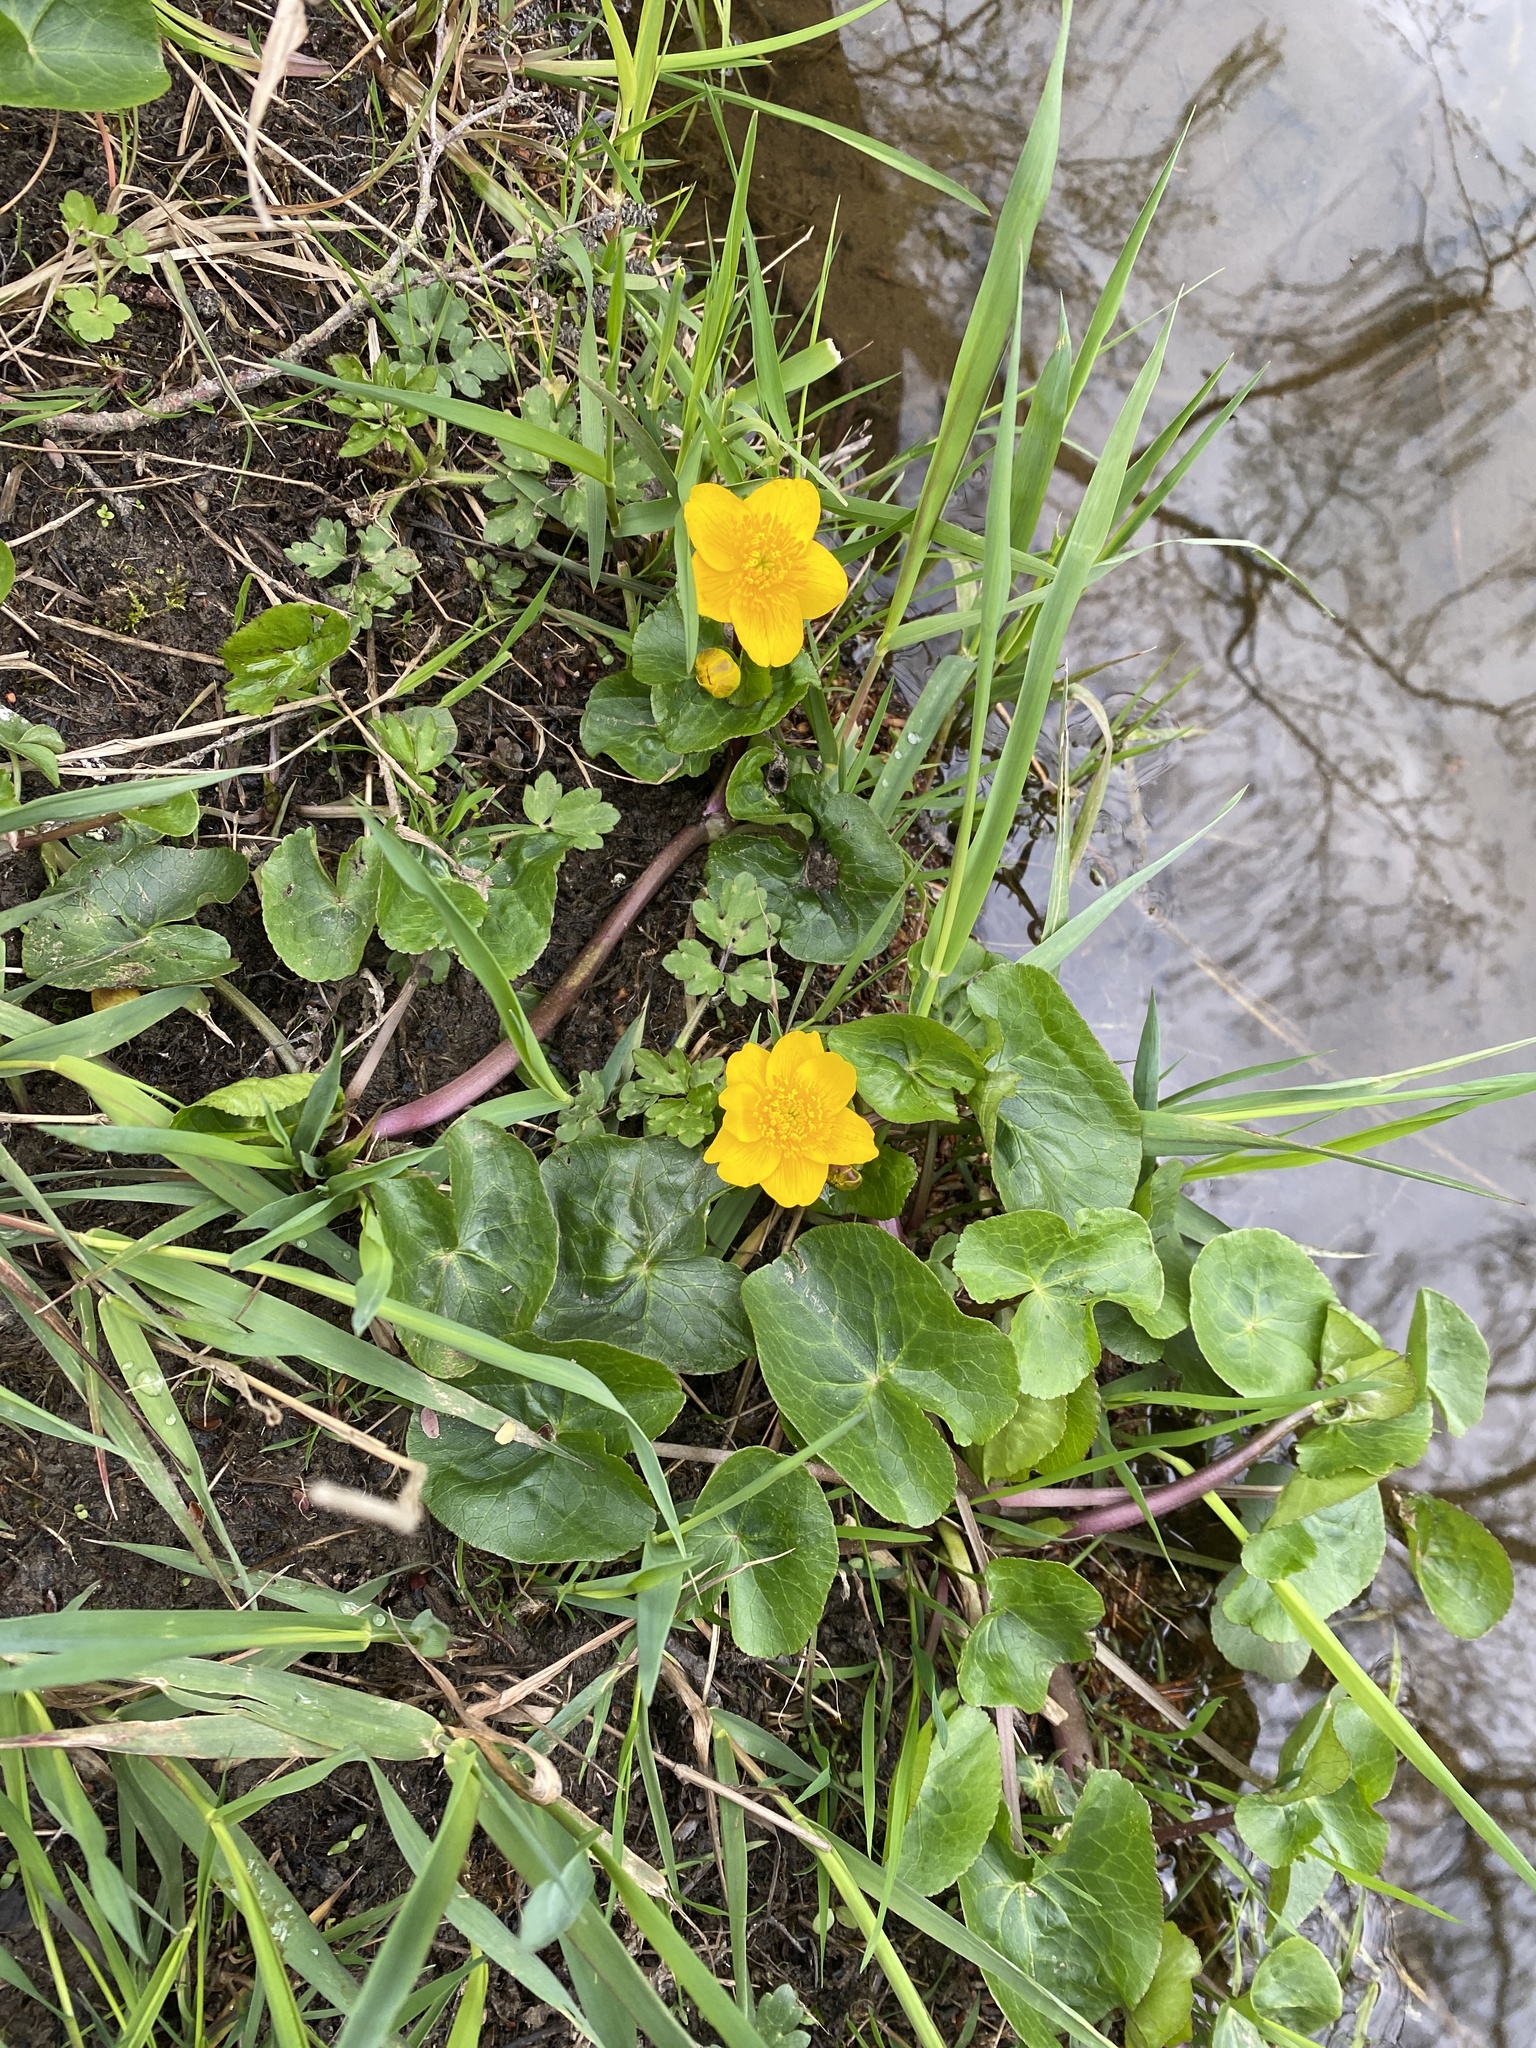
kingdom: Plantae
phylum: Tracheophyta
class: Magnoliopsida
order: Ranunculales
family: Ranunculaceae
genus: Caltha
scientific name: Caltha palustris
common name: Marsh marigold
